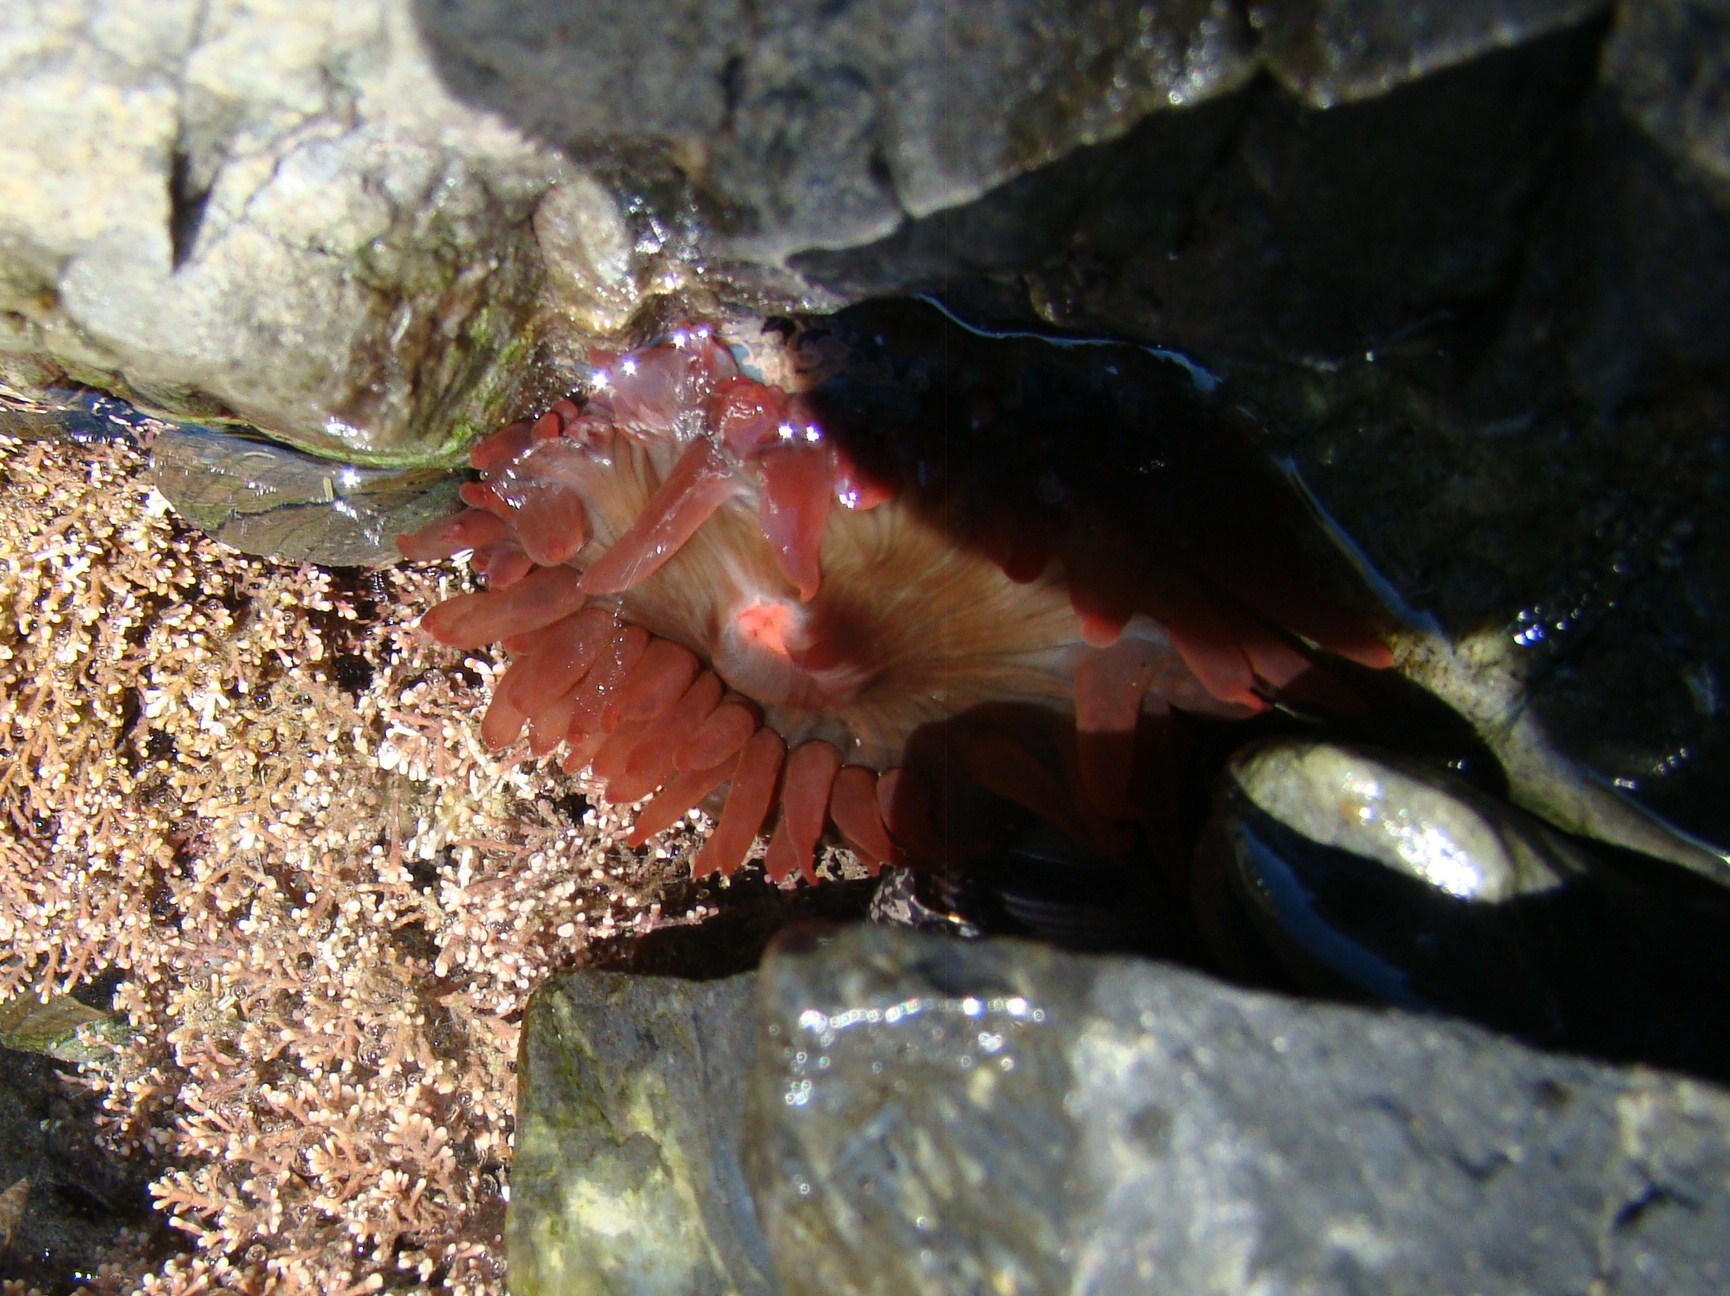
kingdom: Animalia
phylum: Cnidaria
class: Anthozoa
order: Actiniaria
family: Actiniidae
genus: Actinia
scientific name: Actinia tenebrosa
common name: Waratah anemone
